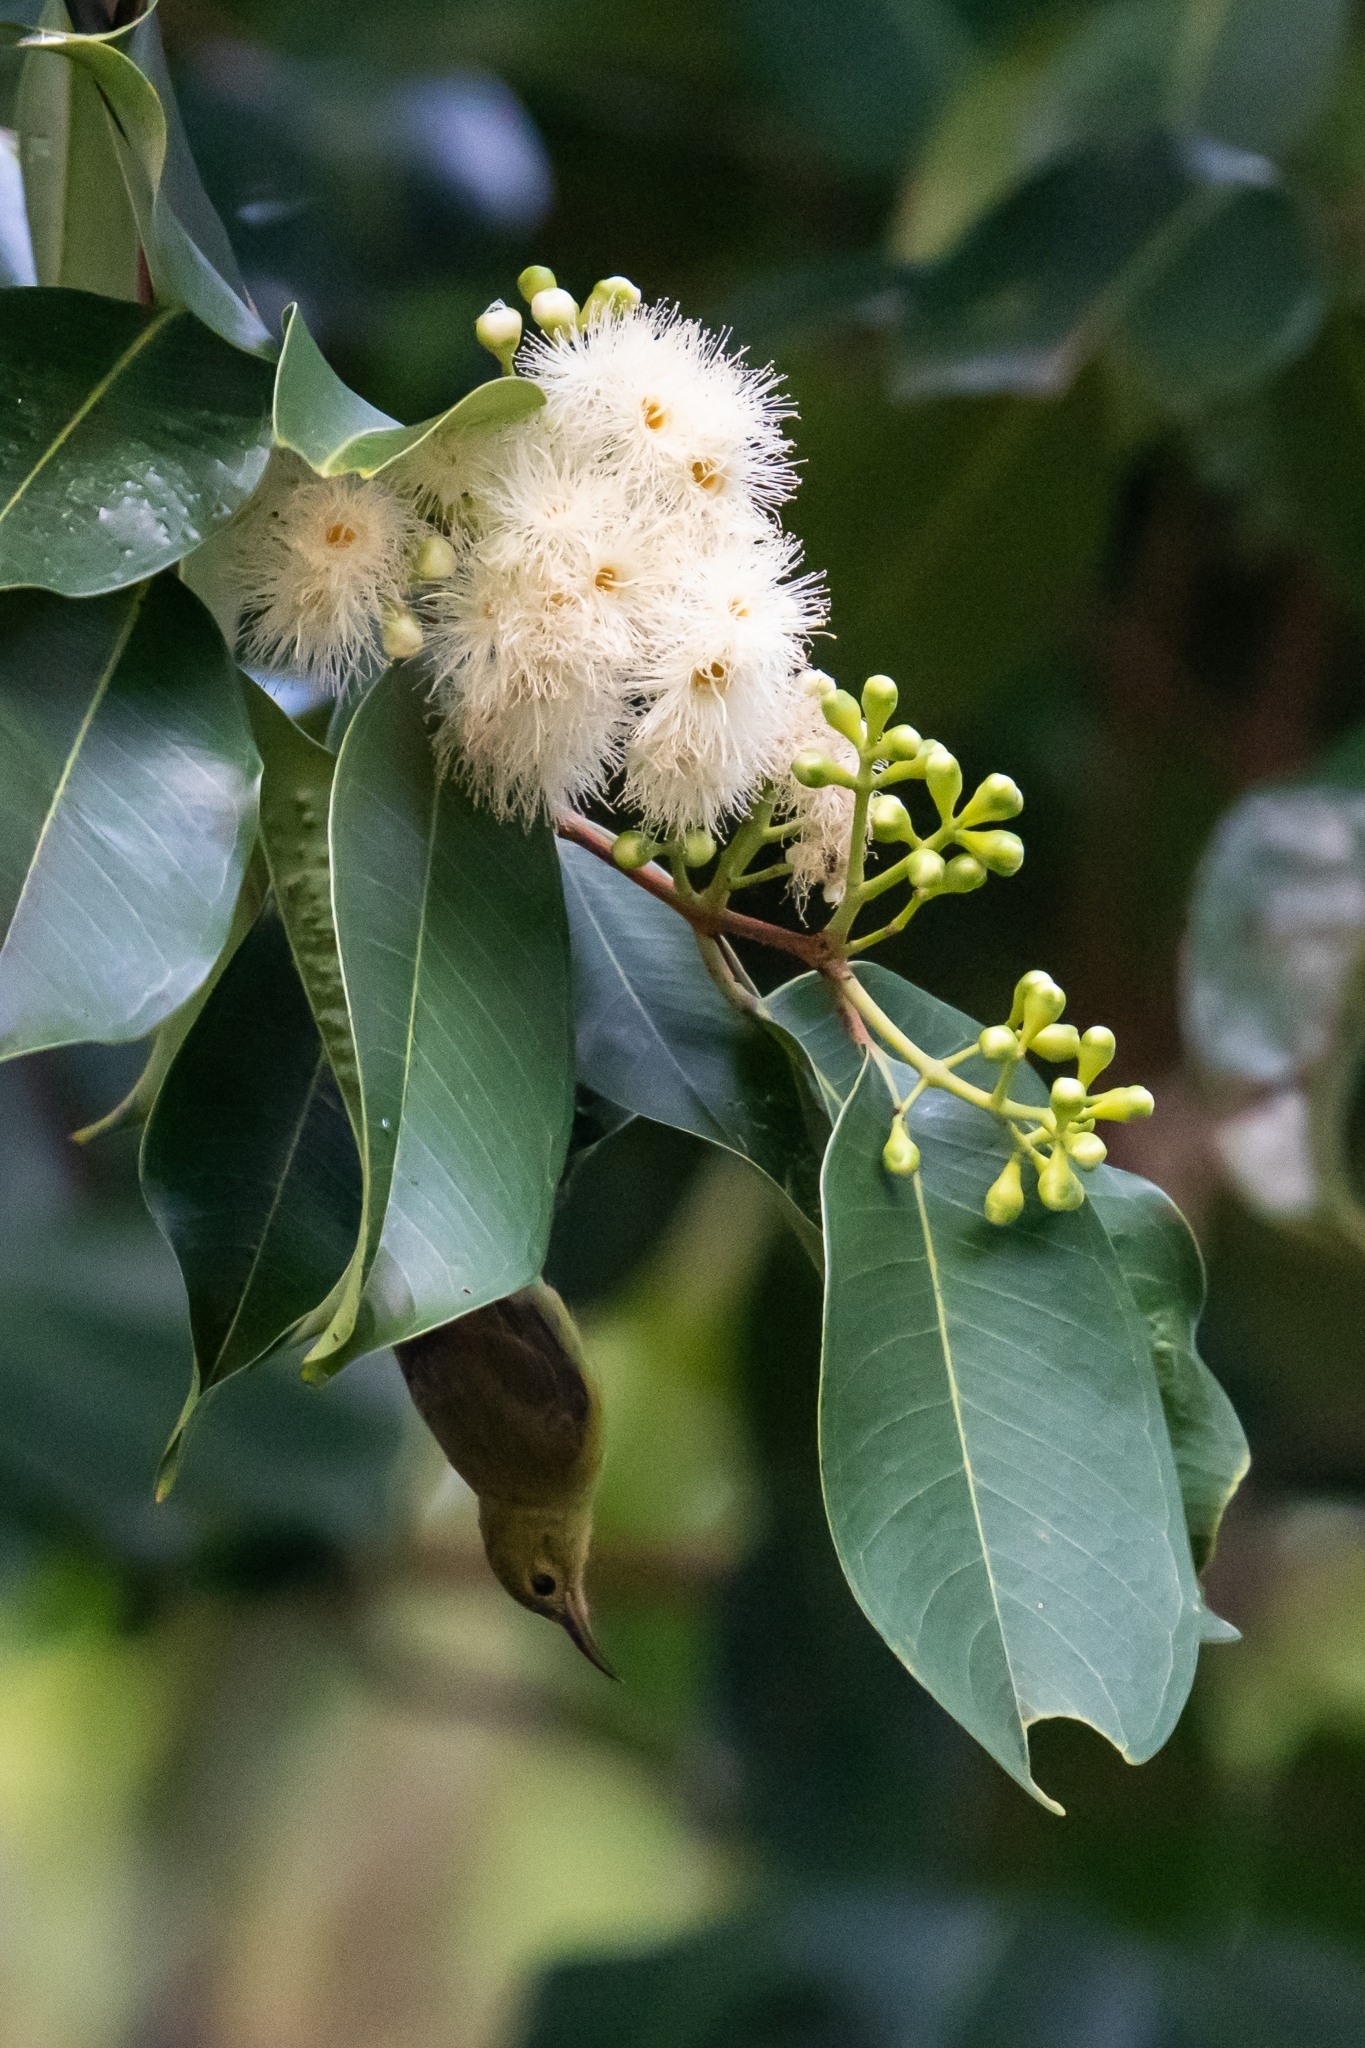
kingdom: Animalia
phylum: Chordata
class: Aves
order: Passeriformes
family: Nectariniidae
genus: Anthreptes
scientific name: Anthreptes malacensis
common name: Brown-throated sunbird
